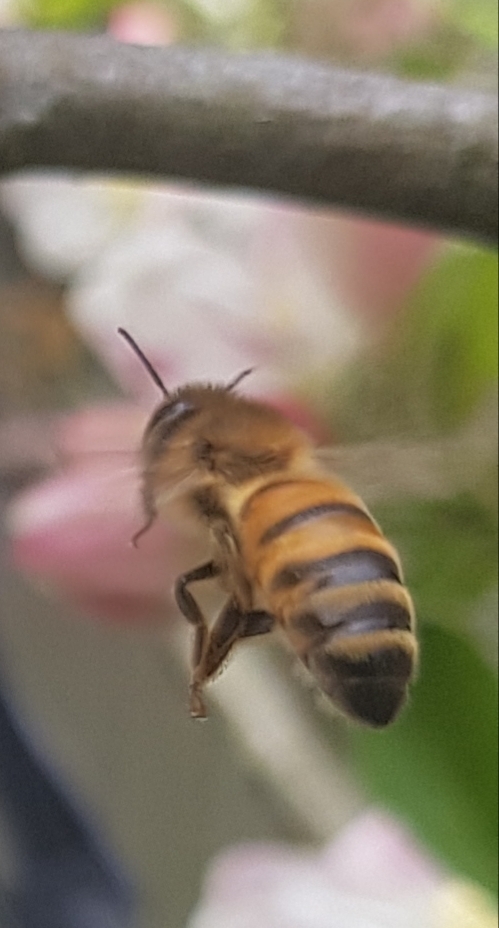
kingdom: Animalia
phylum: Arthropoda
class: Insecta
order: Hymenoptera
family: Apidae
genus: Apis
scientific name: Apis mellifera
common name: Honey bee
